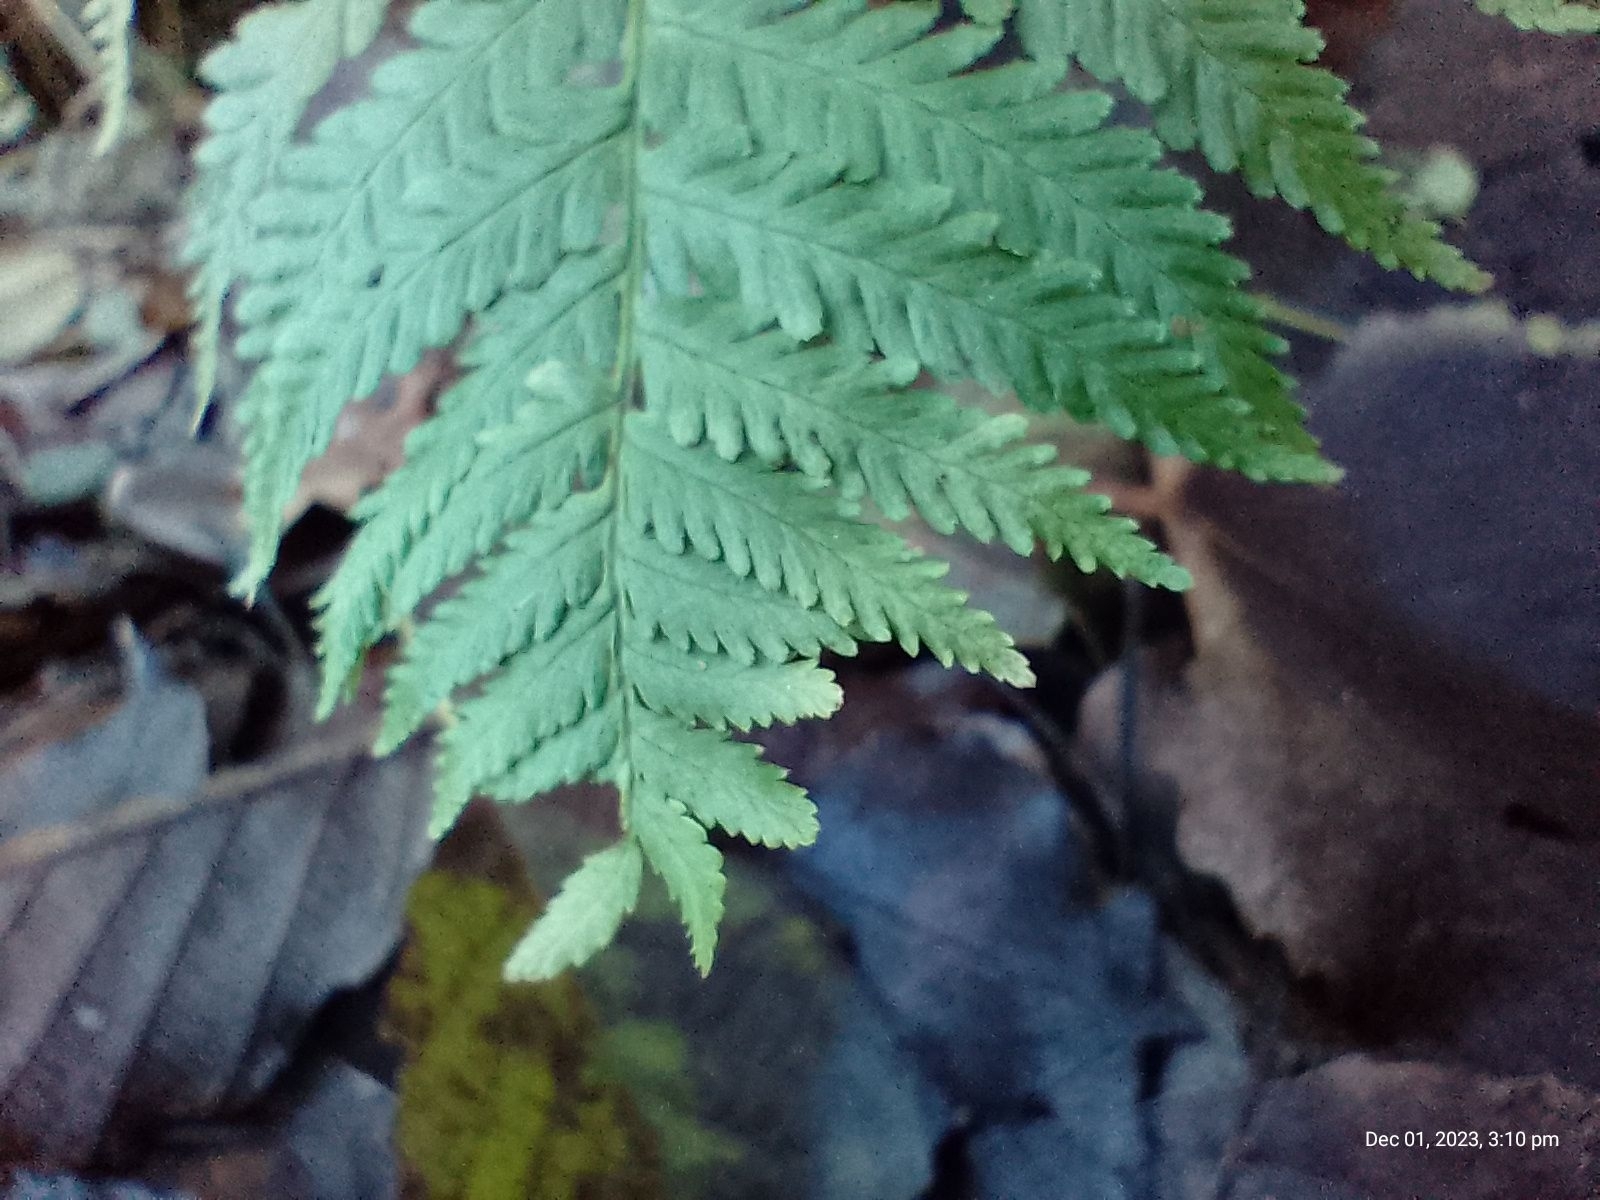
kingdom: Plantae
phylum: Tracheophyta
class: Polypodiopsida
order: Polypodiales
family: Dryopteridaceae
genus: Dryopteris
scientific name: Dryopteris filix-mas
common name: Male fern
